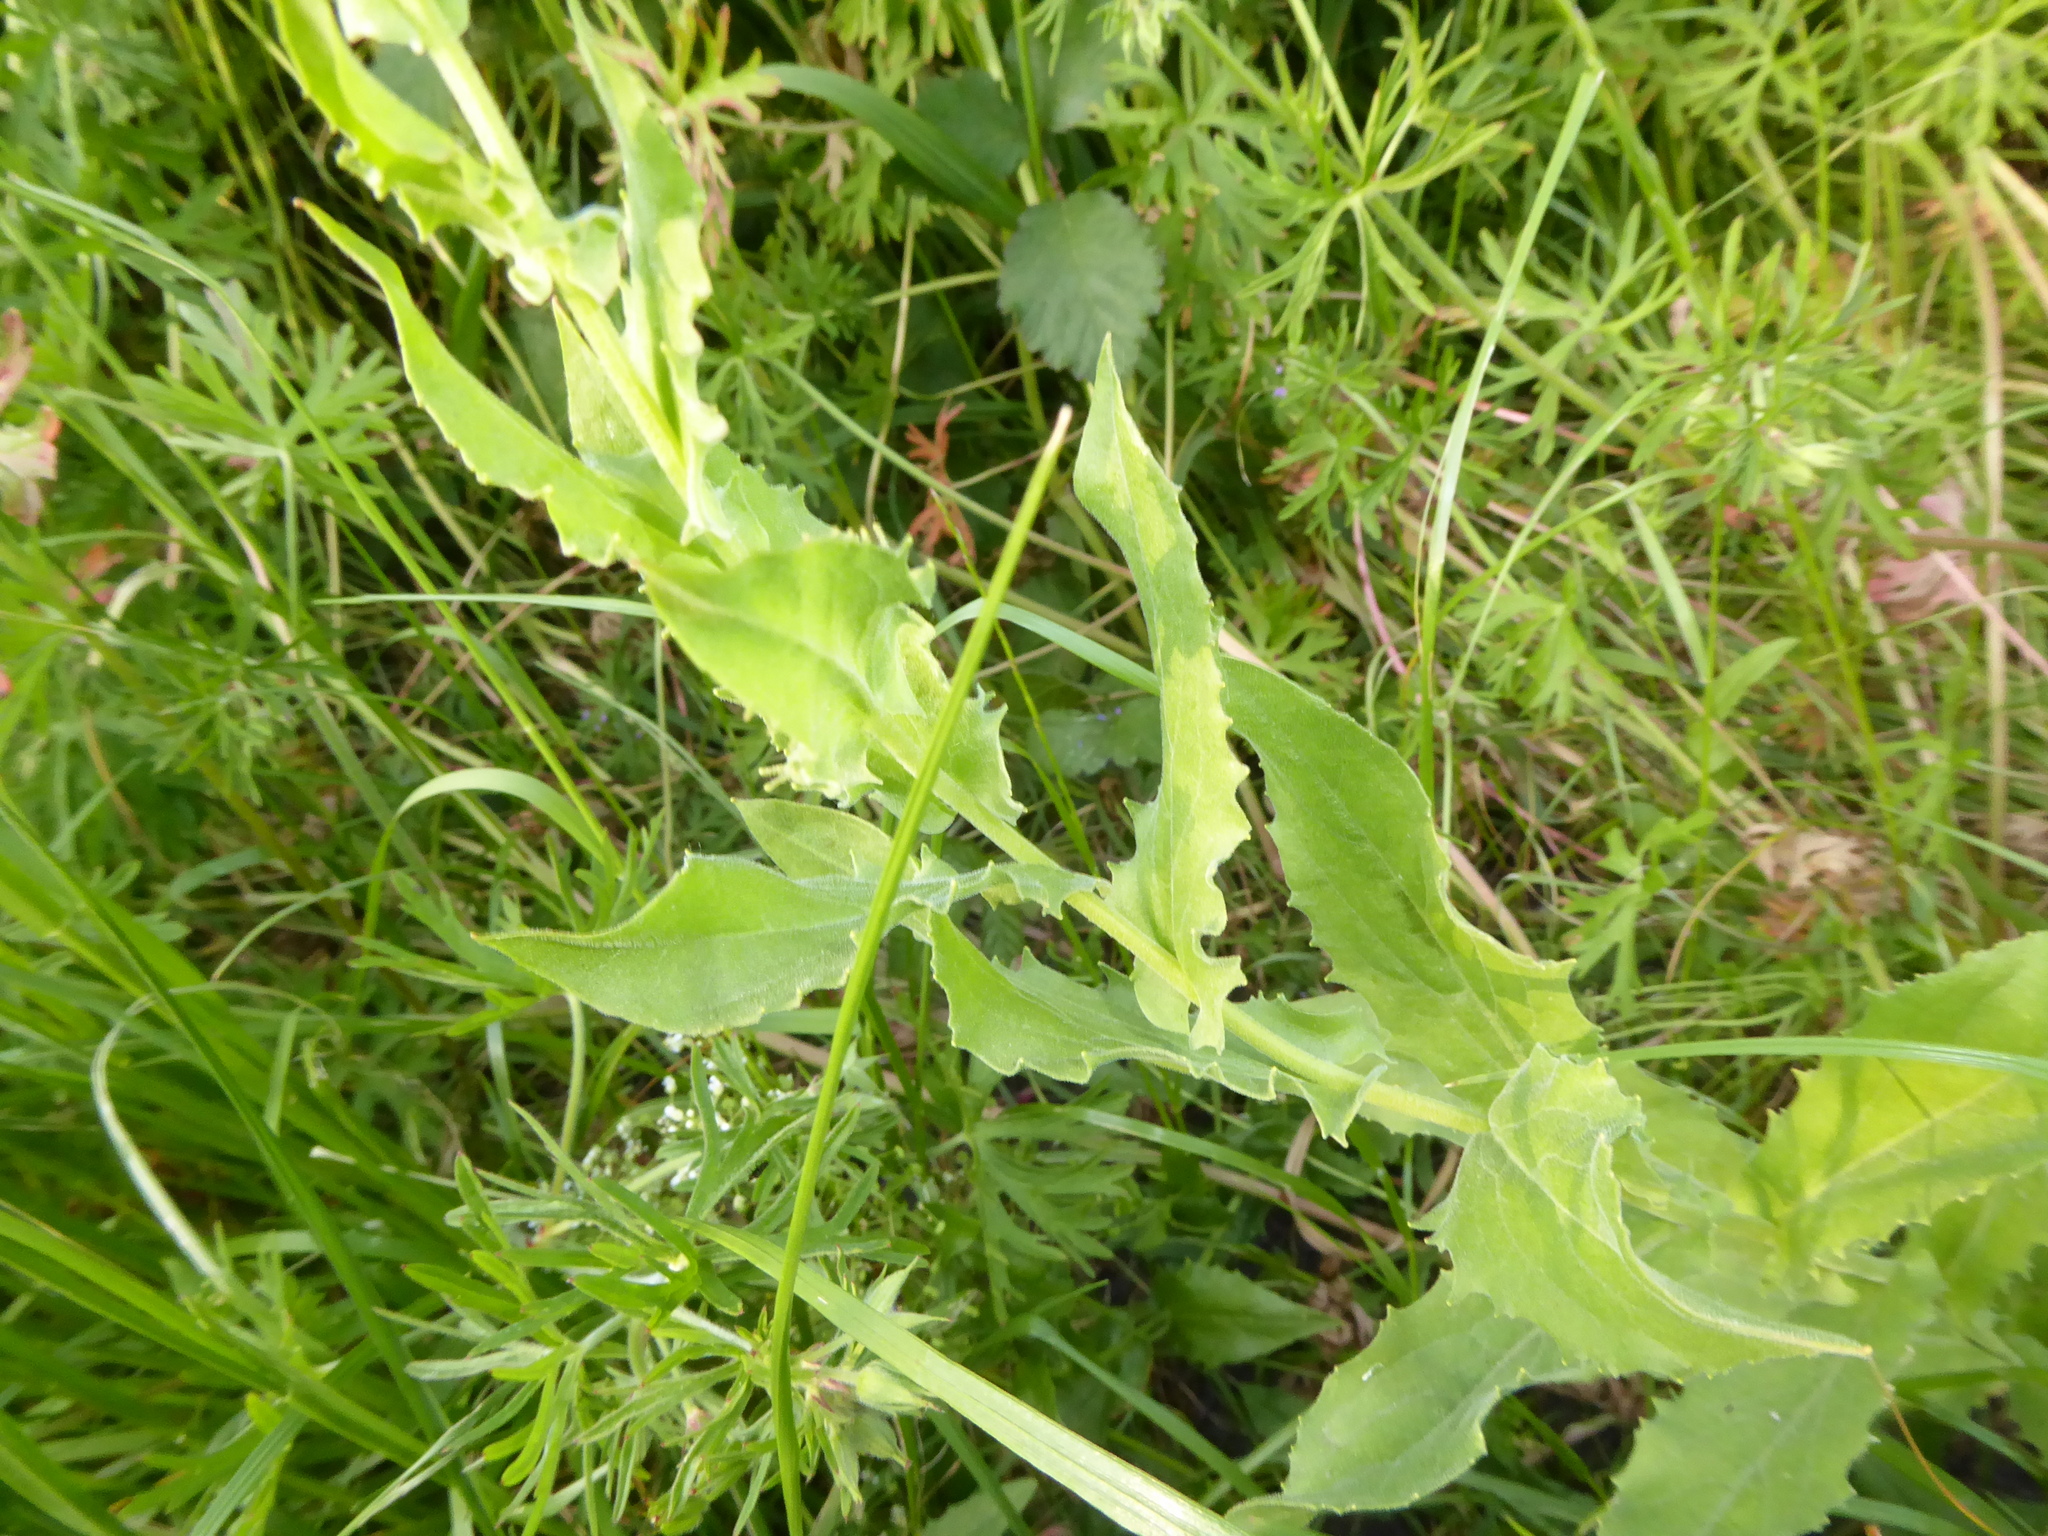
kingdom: Plantae
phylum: Tracheophyta
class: Magnoliopsida
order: Brassicales
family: Brassicaceae
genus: Lepidium
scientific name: Lepidium draba
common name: Hoary cress
